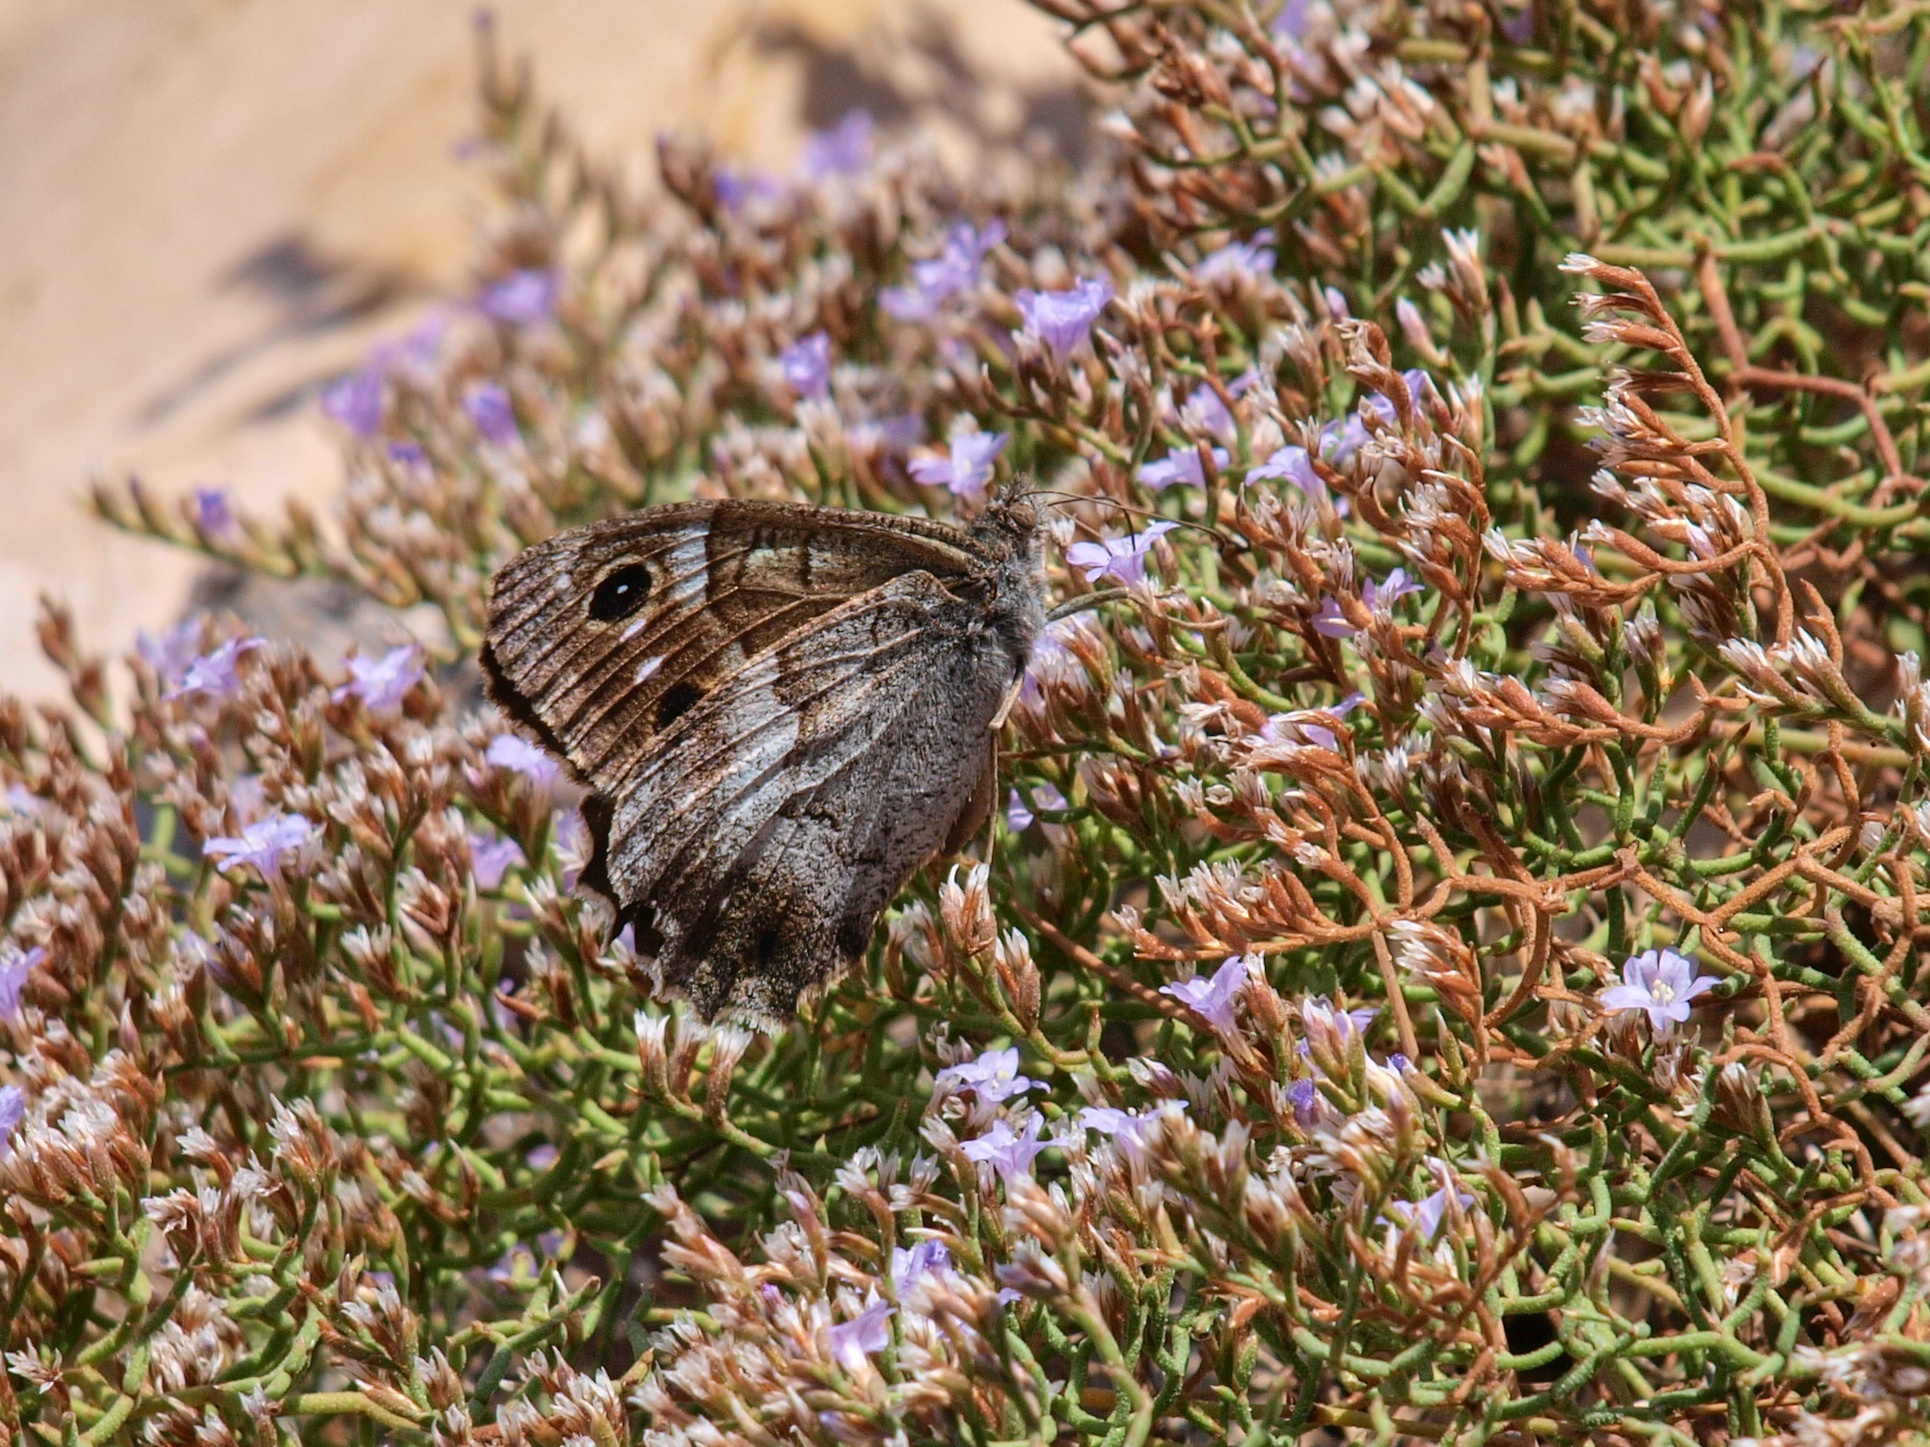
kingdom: Animalia
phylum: Arthropoda
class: Insecta
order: Lepidoptera
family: Nymphalidae
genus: Hipparchia
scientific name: Hipparchia statilinus
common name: Tree grayling
